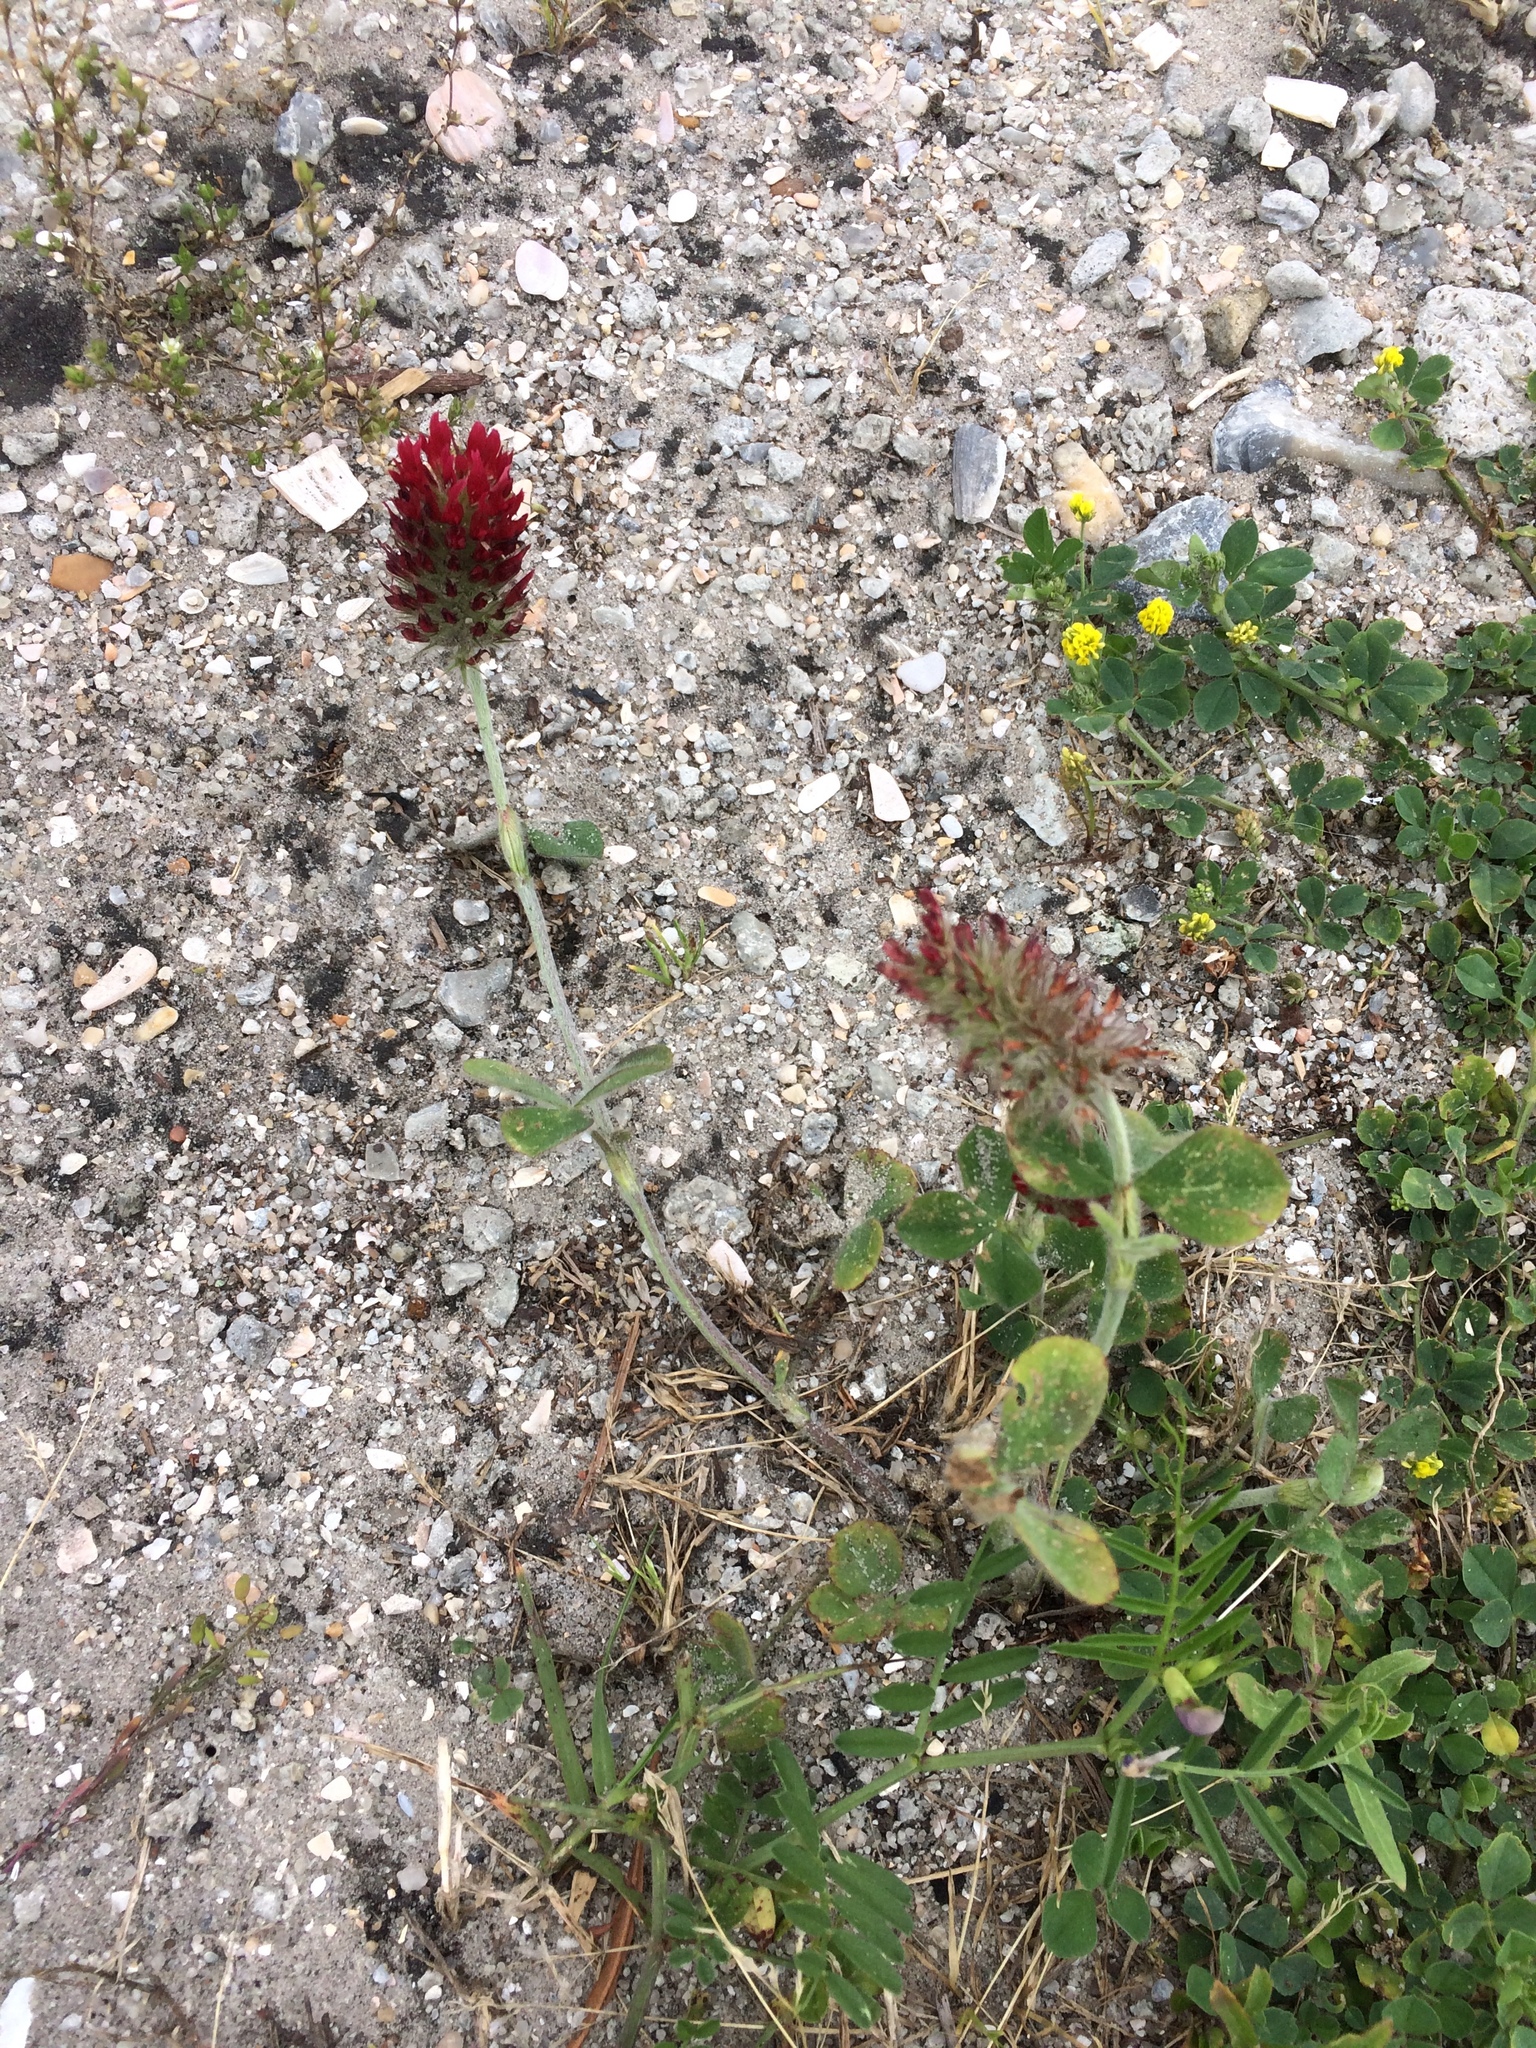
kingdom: Plantae
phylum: Tracheophyta
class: Magnoliopsida
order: Fabales
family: Fabaceae
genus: Trifolium
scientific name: Trifolium incarnatum
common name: Crimson clover
